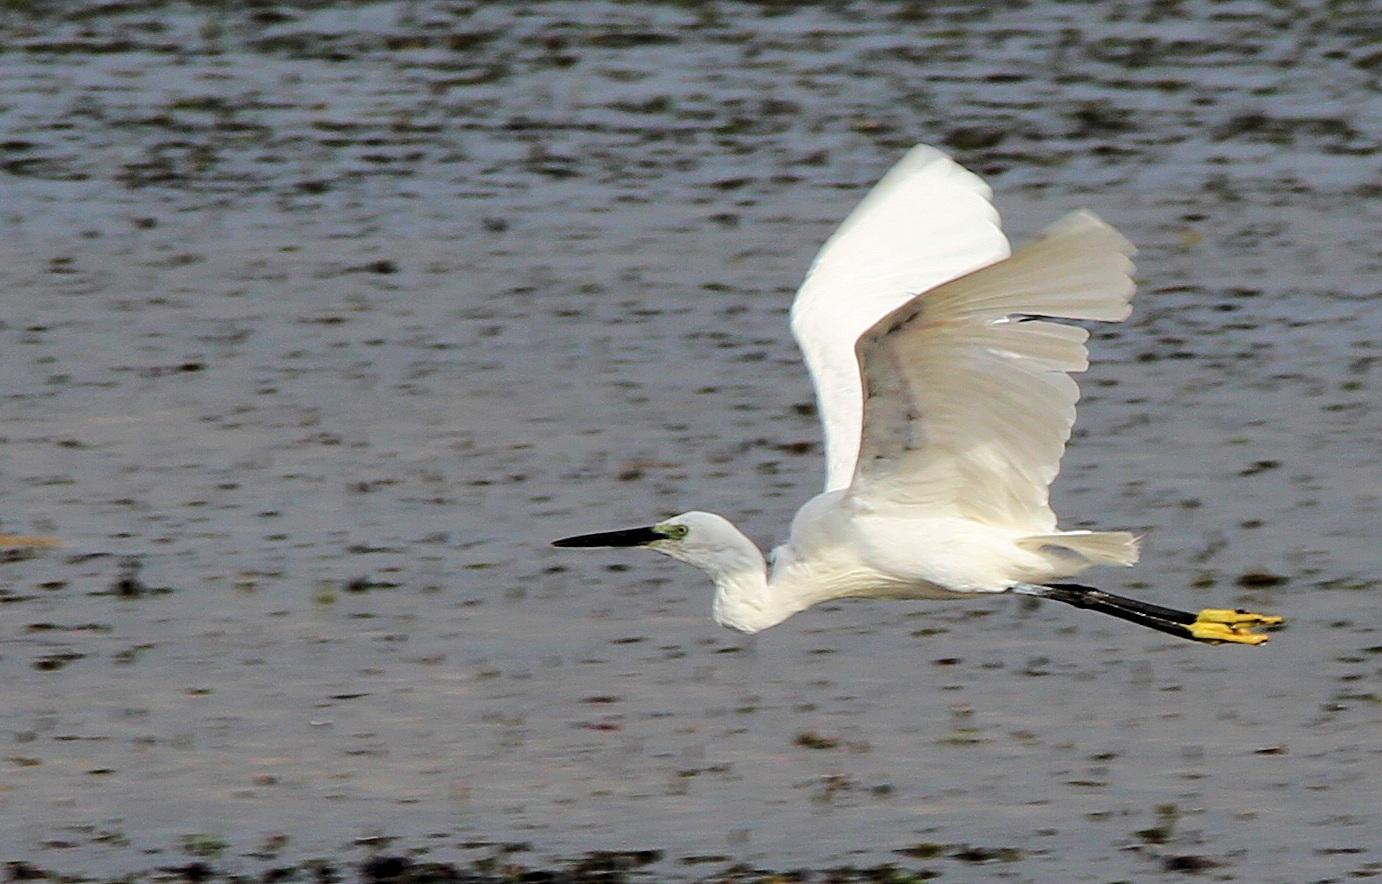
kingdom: Animalia
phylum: Chordata
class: Aves
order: Pelecaniformes
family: Ardeidae
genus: Egretta
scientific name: Egretta garzetta
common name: Little egret
